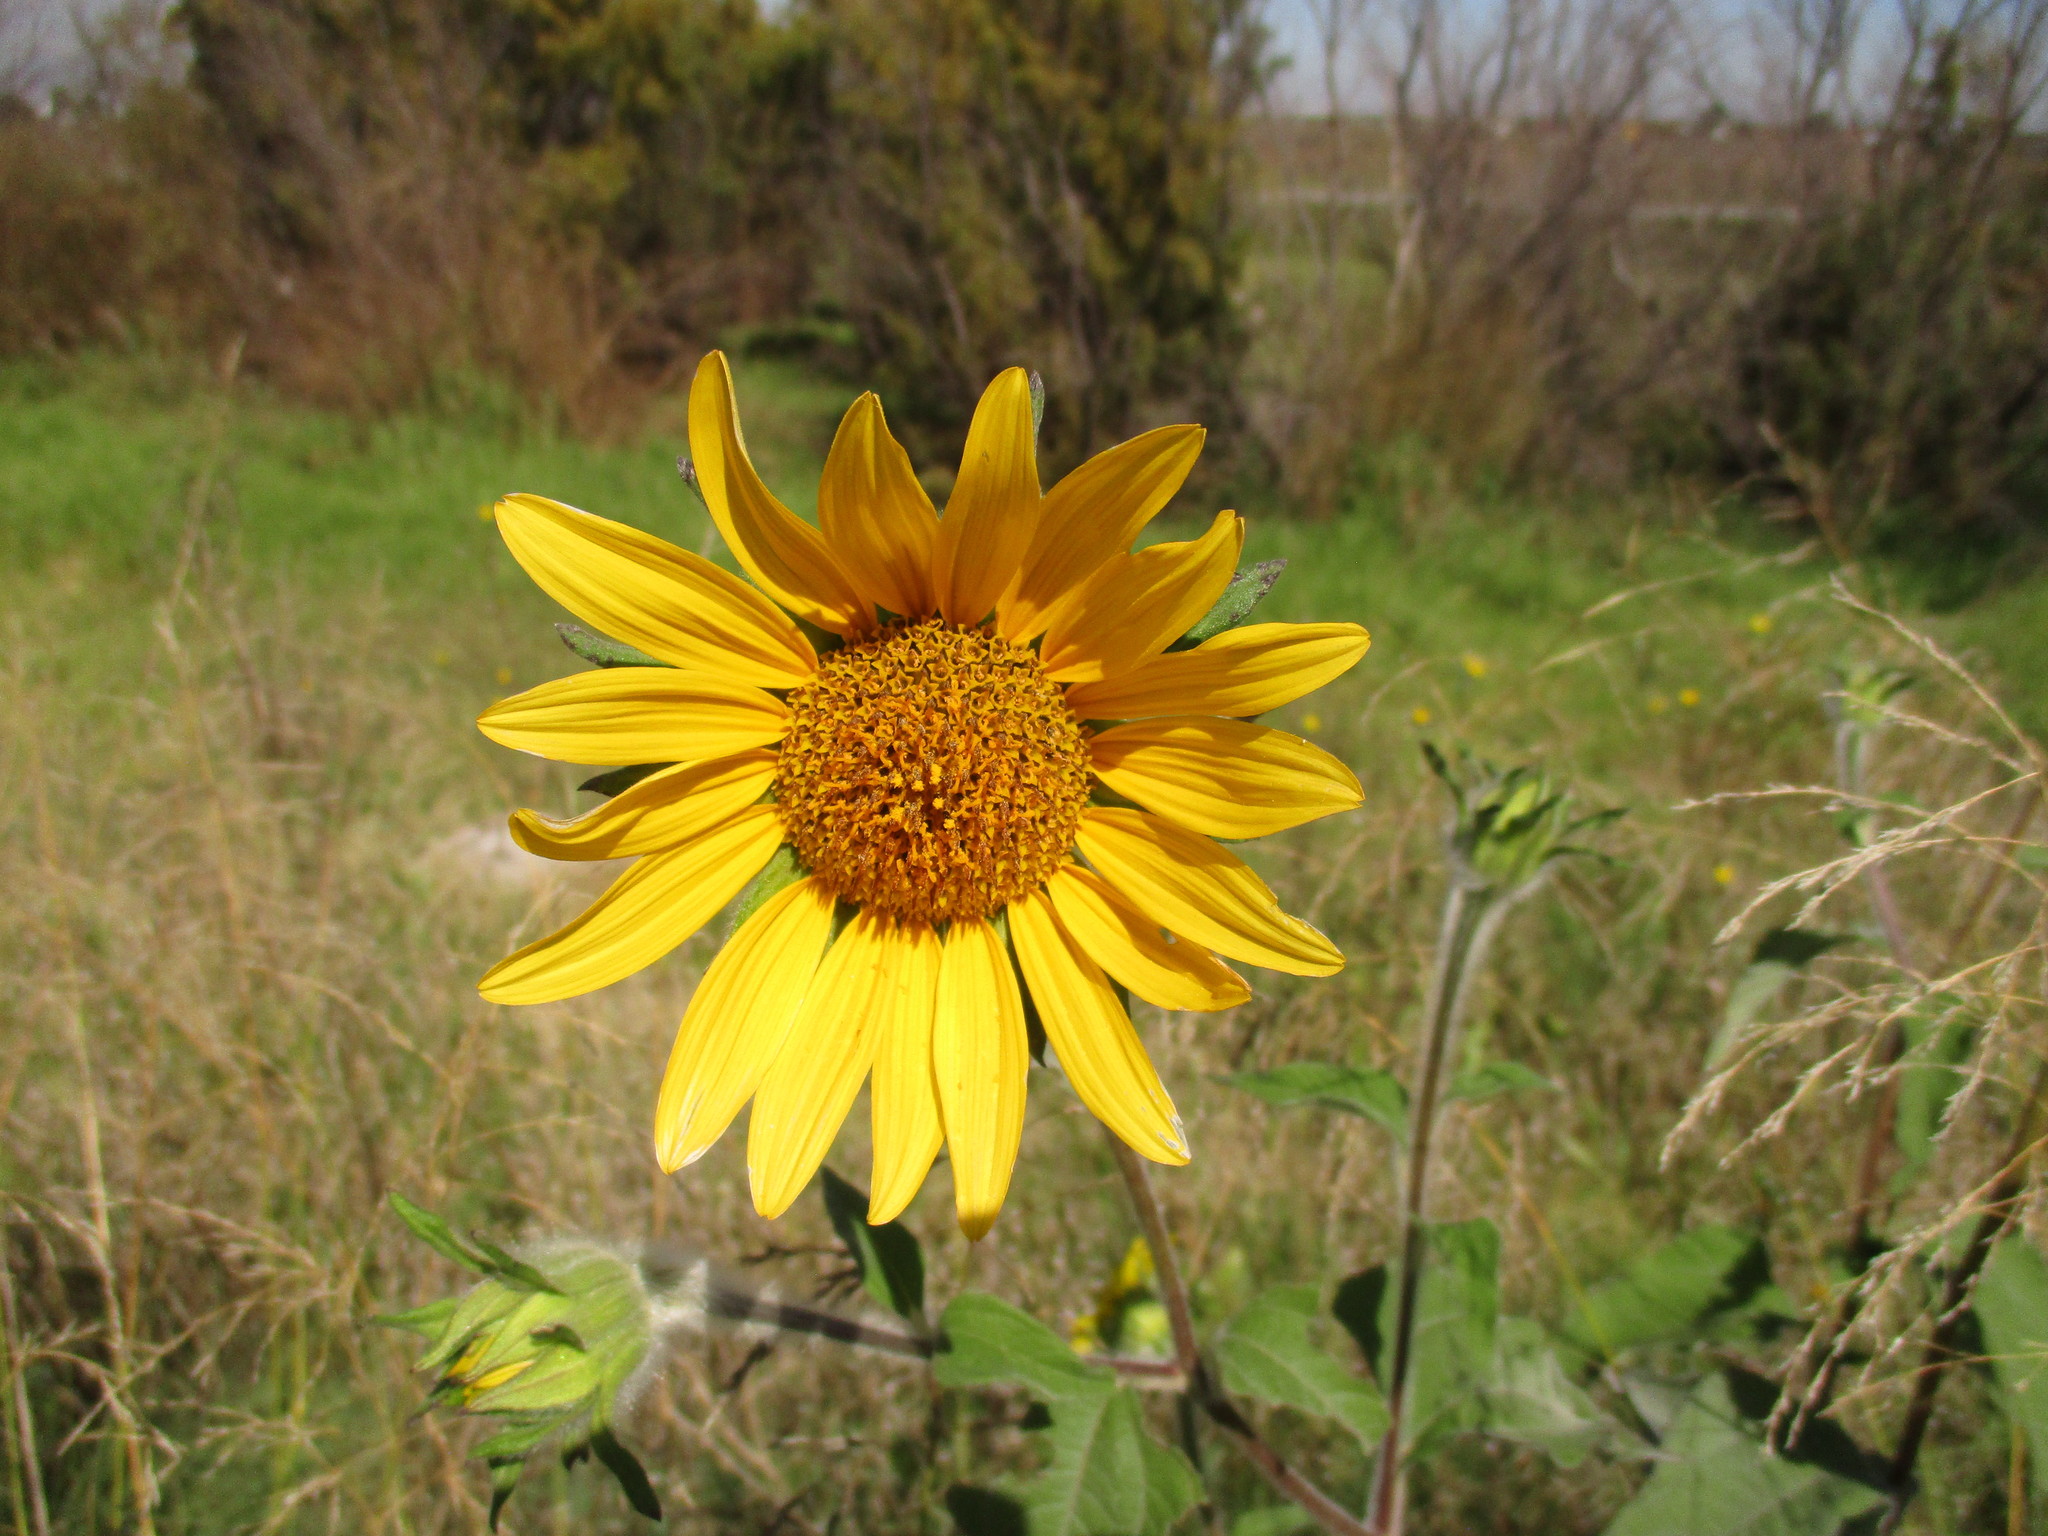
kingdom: Plantae
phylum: Tracheophyta
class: Magnoliopsida
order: Asterales
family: Asteraceae
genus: Tithonia
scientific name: Tithonia tubaeformis
